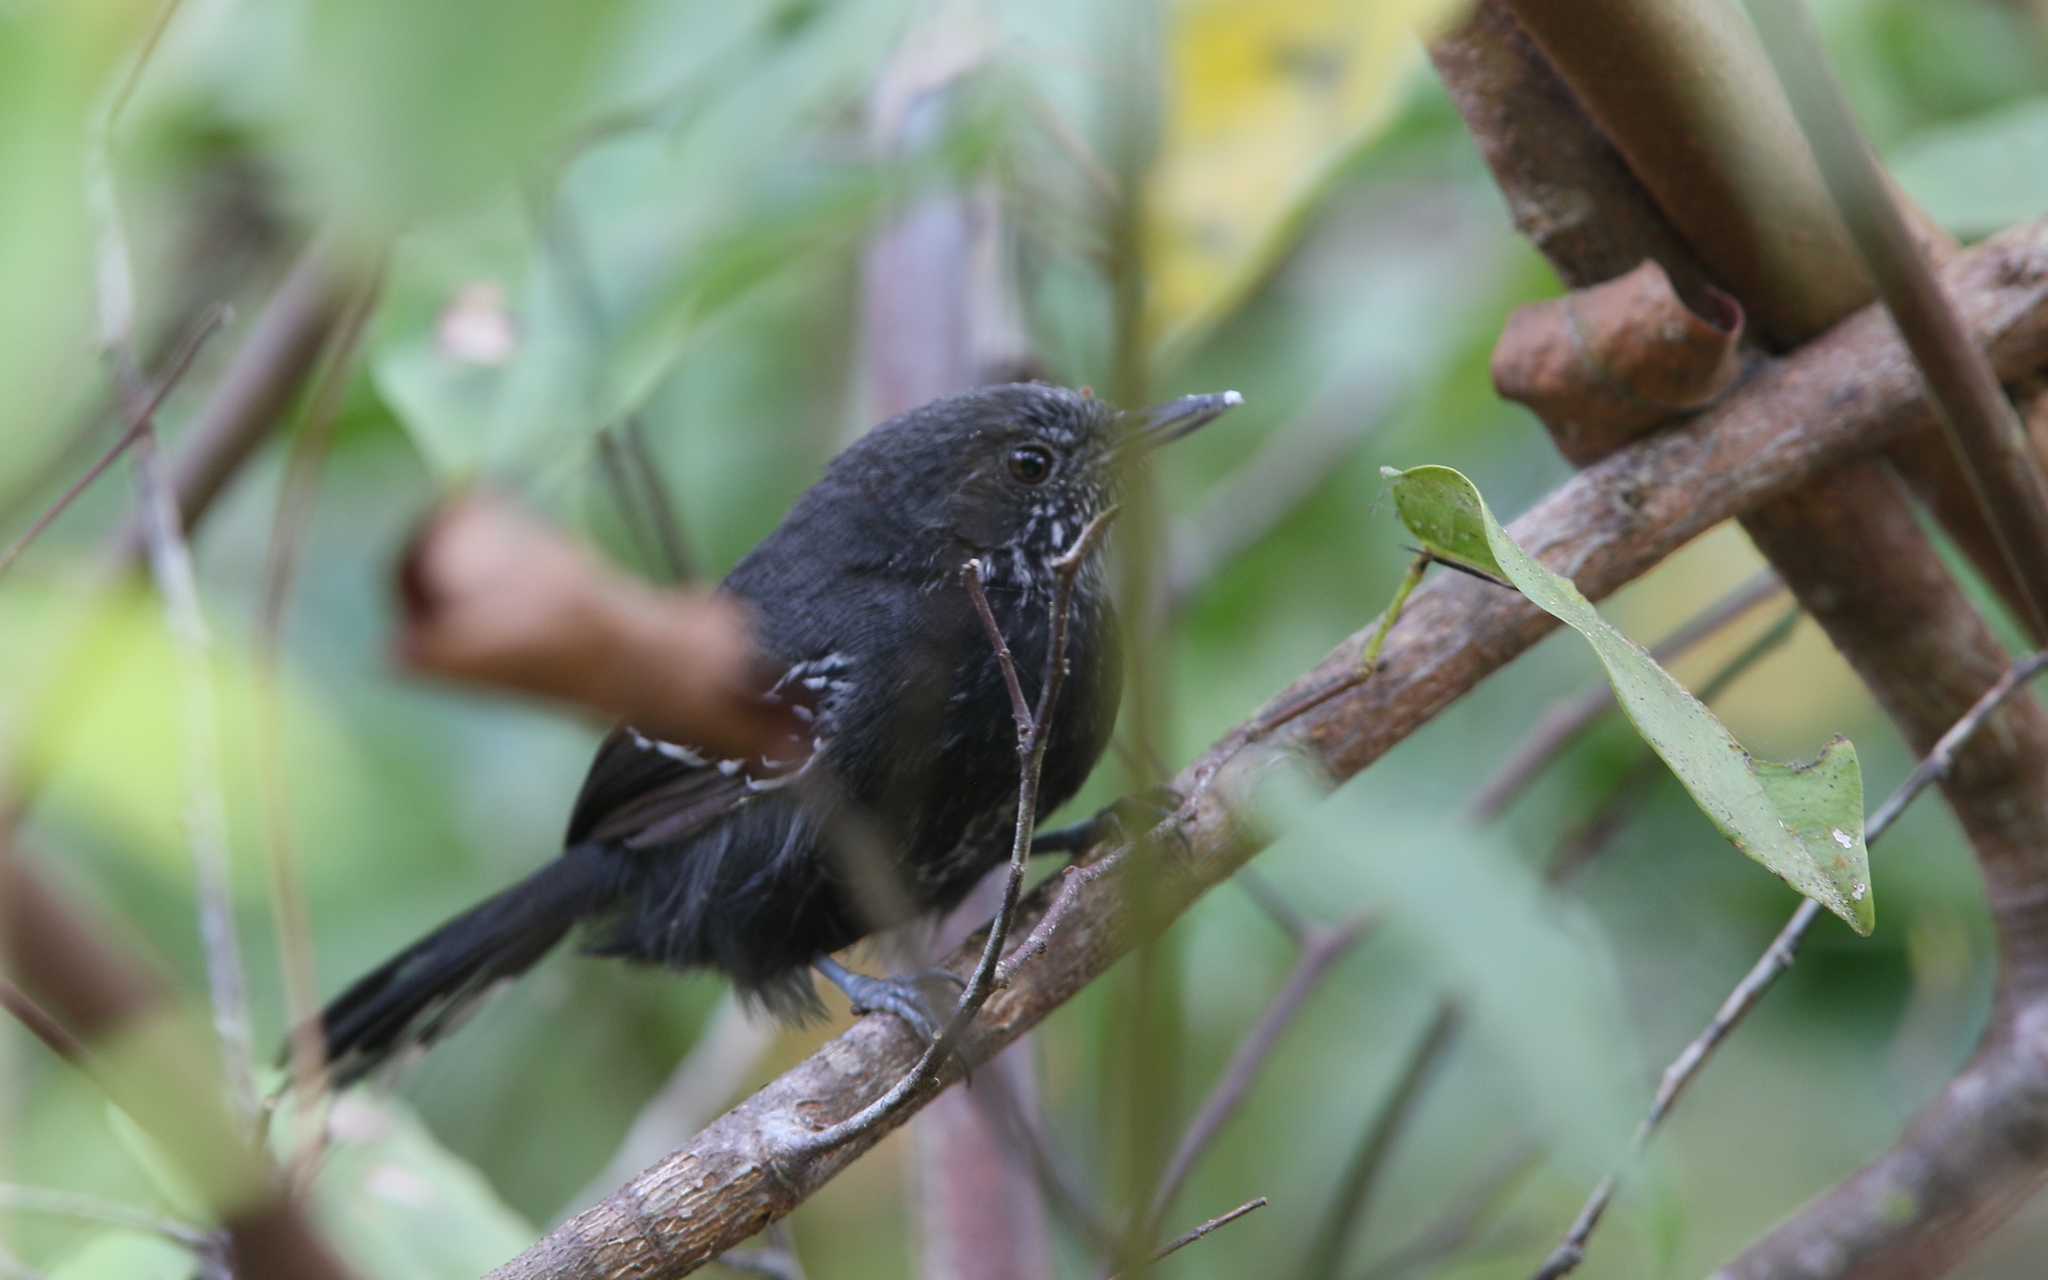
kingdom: Animalia
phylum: Chordata
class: Aves
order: Passeriformes
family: Thamnophilidae
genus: Cercomacra
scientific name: Cercomacra nigricans
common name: Jet antbird
